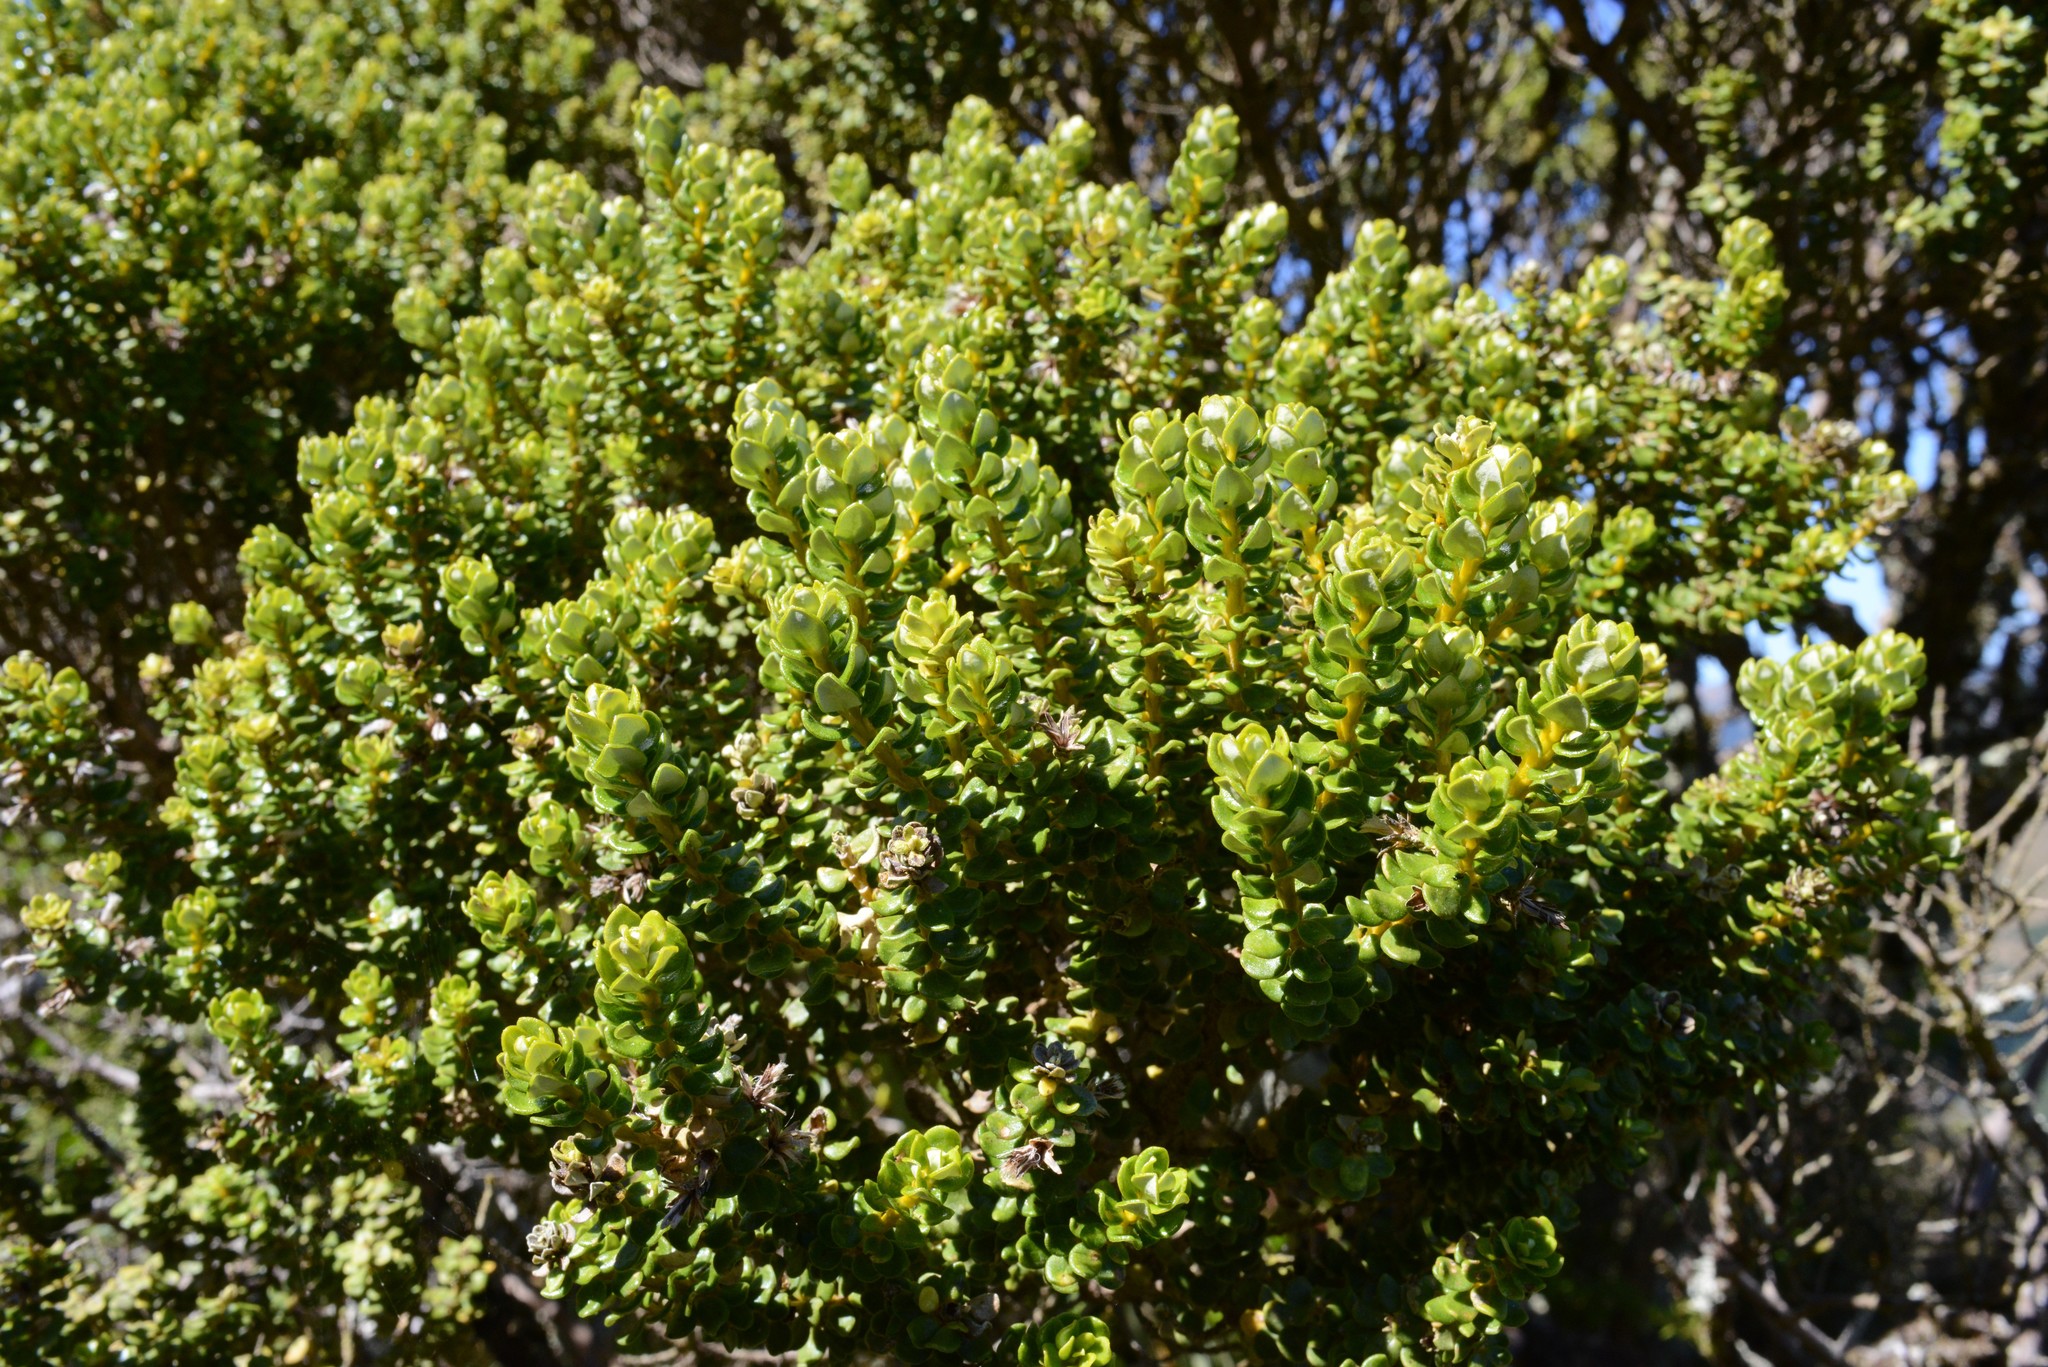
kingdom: Plantae
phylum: Tracheophyta
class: Magnoliopsida
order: Asterales
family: Asteraceae
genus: Olearia
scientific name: Olearia nummularifolia
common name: Sticky daisybush
